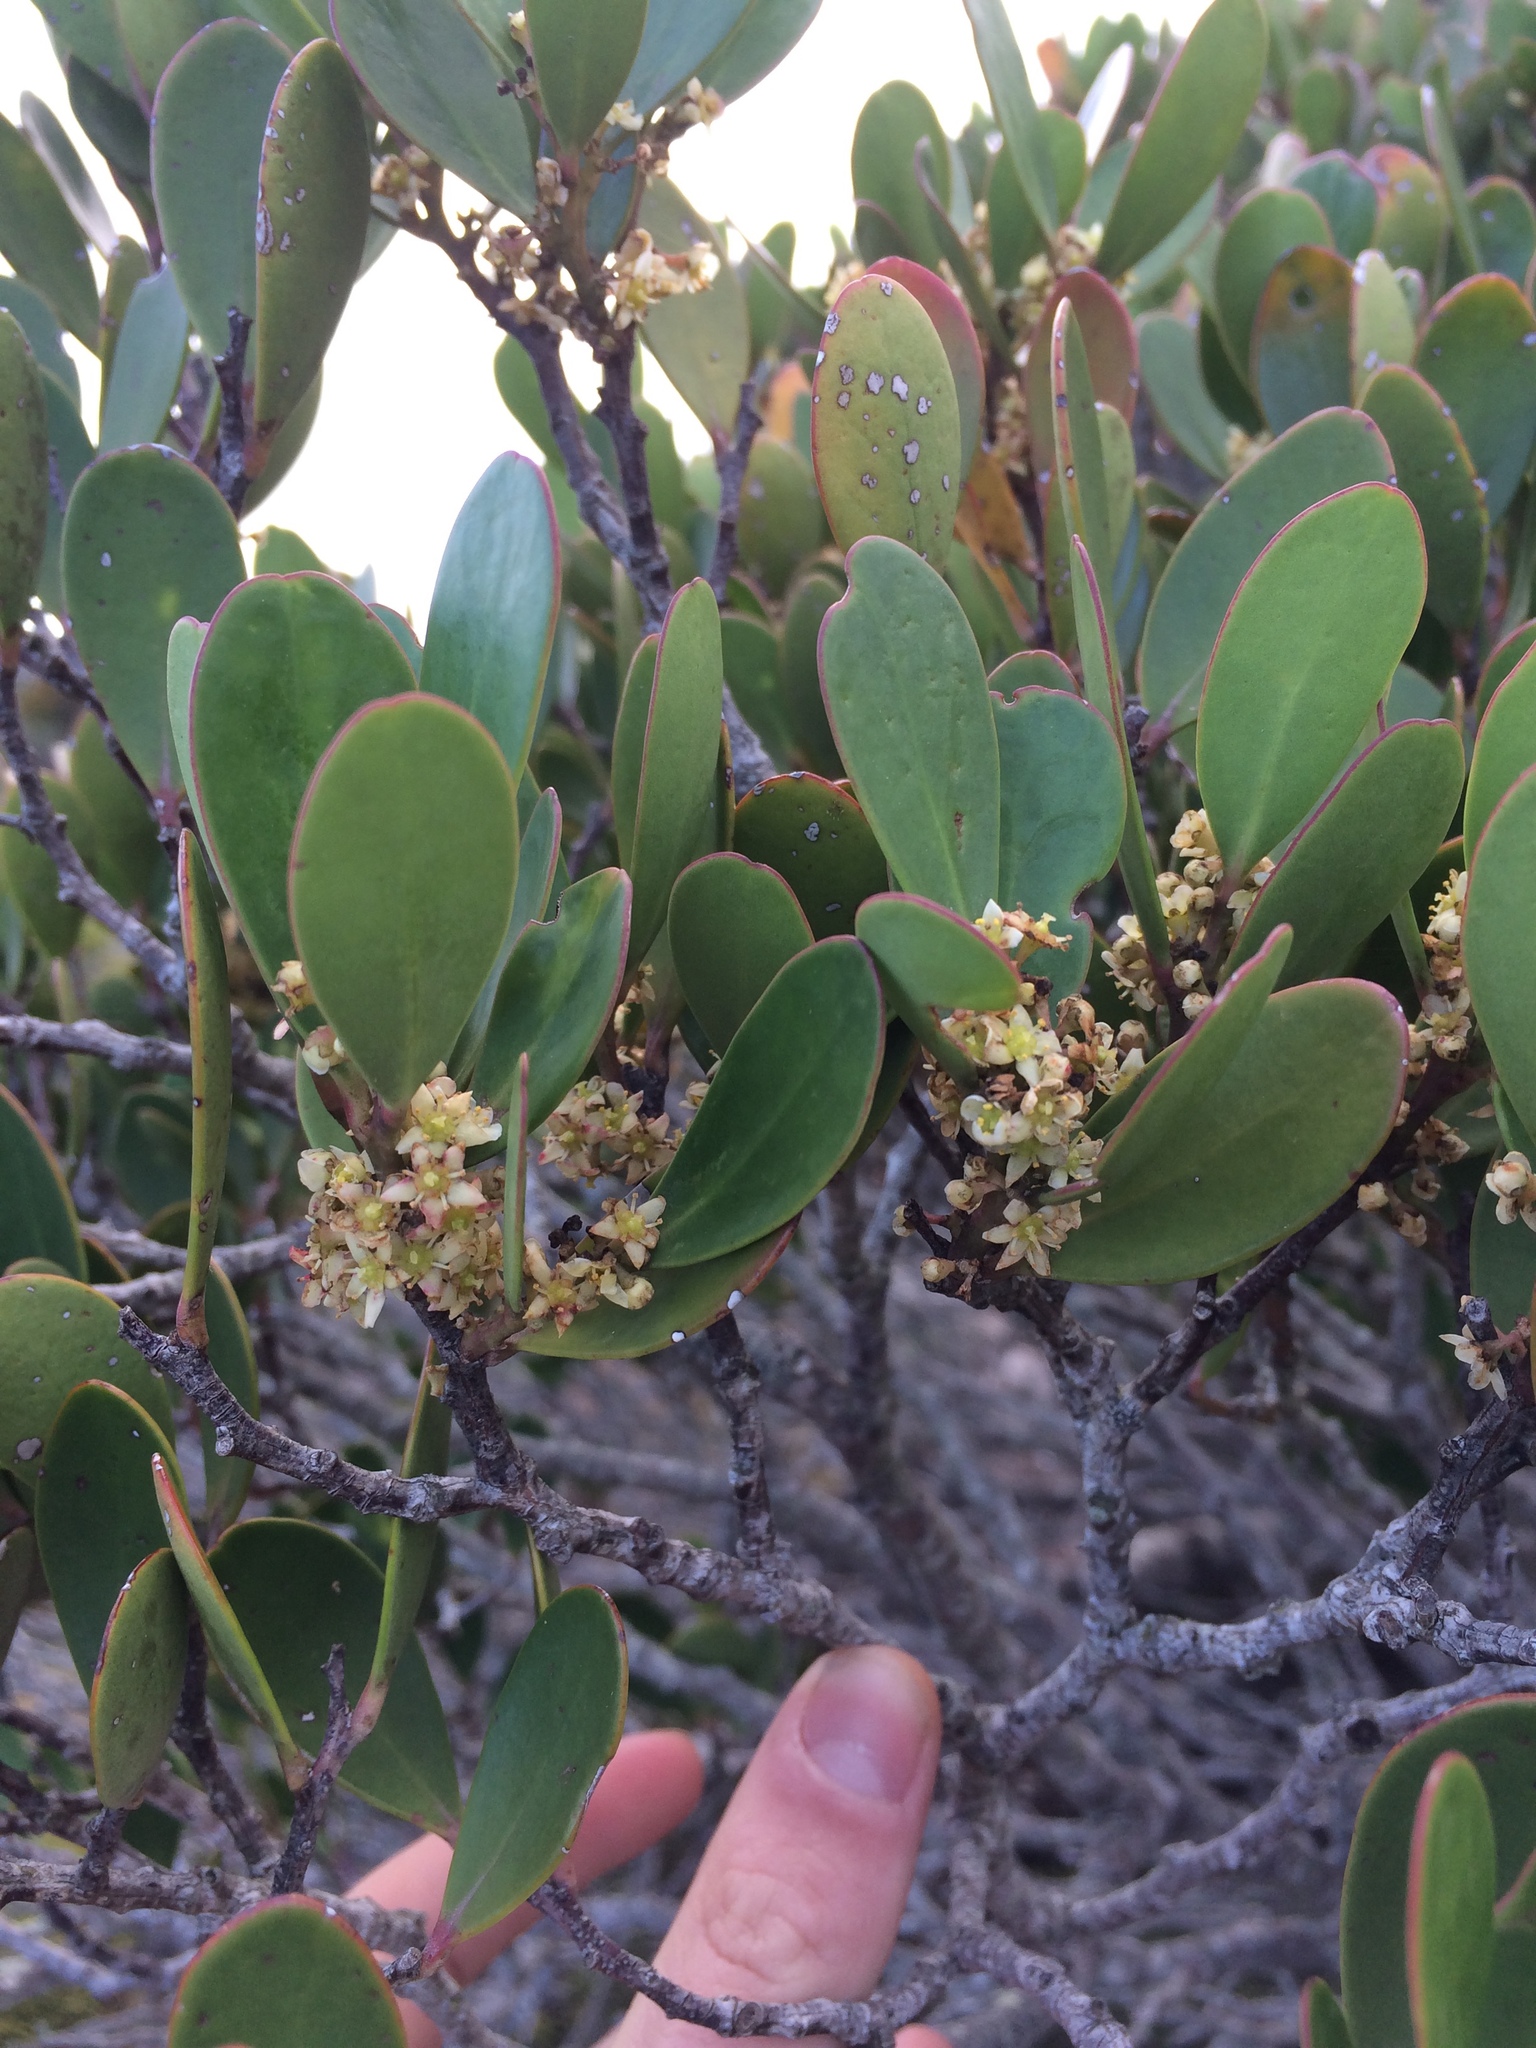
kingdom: Plantae
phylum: Tracheophyta
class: Magnoliopsida
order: Celastrales
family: Celastraceae
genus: Pterocelastrus
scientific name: Pterocelastrus tricuspidatus
